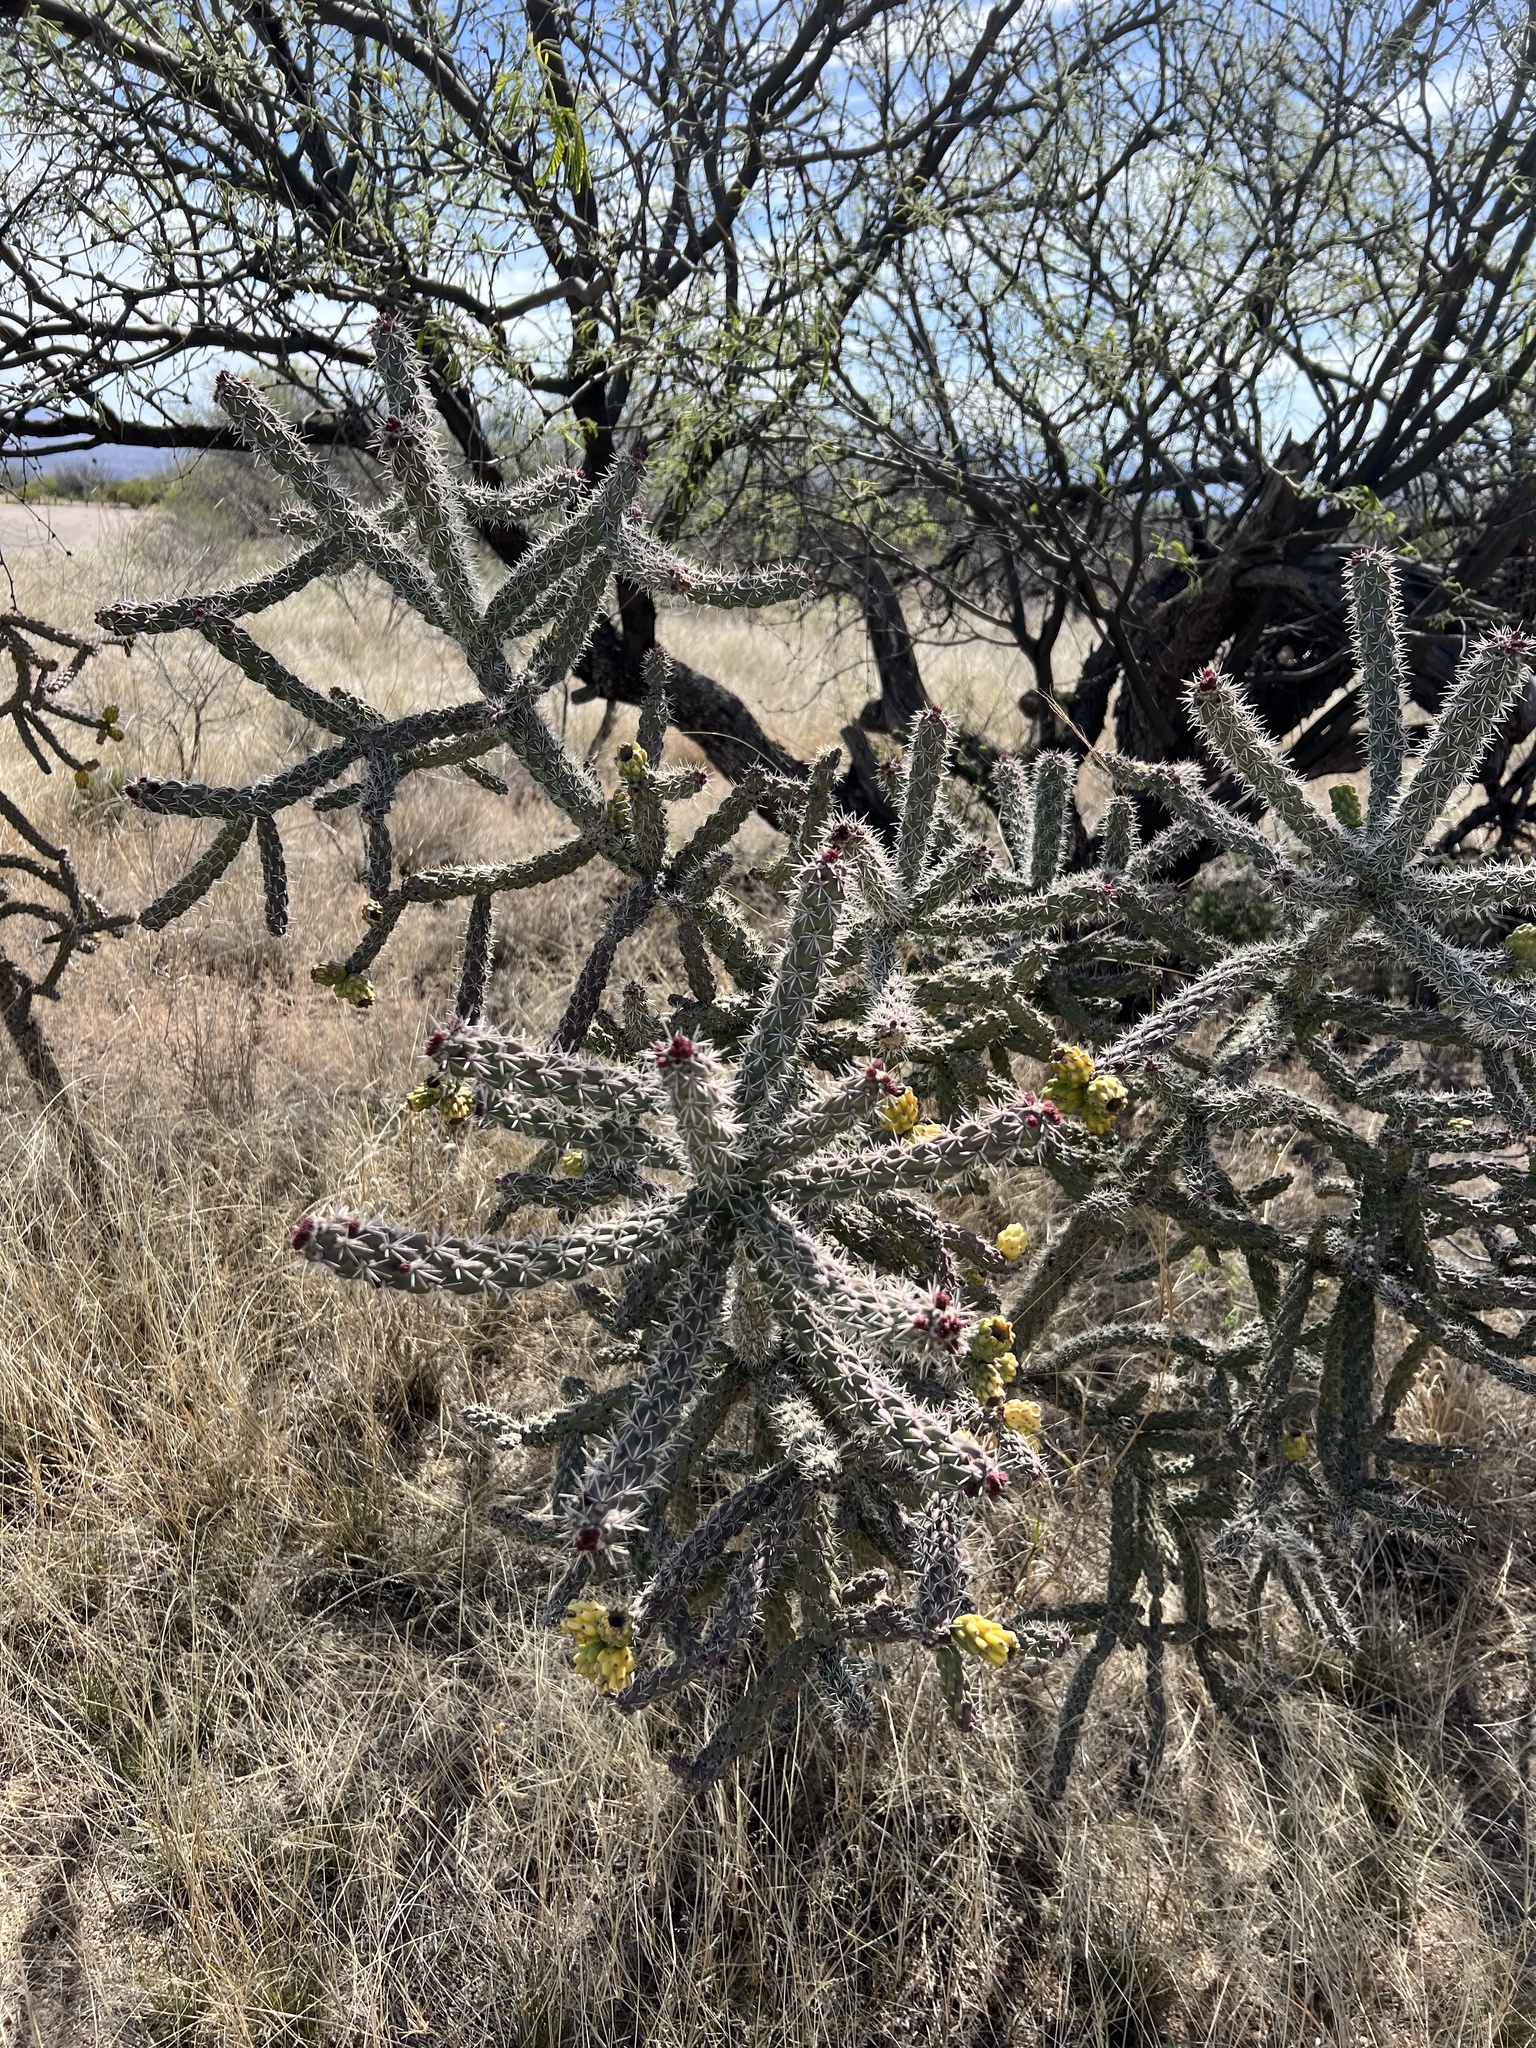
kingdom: Plantae
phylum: Tracheophyta
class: Magnoliopsida
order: Caryophyllales
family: Cactaceae
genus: Cylindropuntia
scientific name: Cylindropuntia imbricata
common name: Candelabrum cactus
